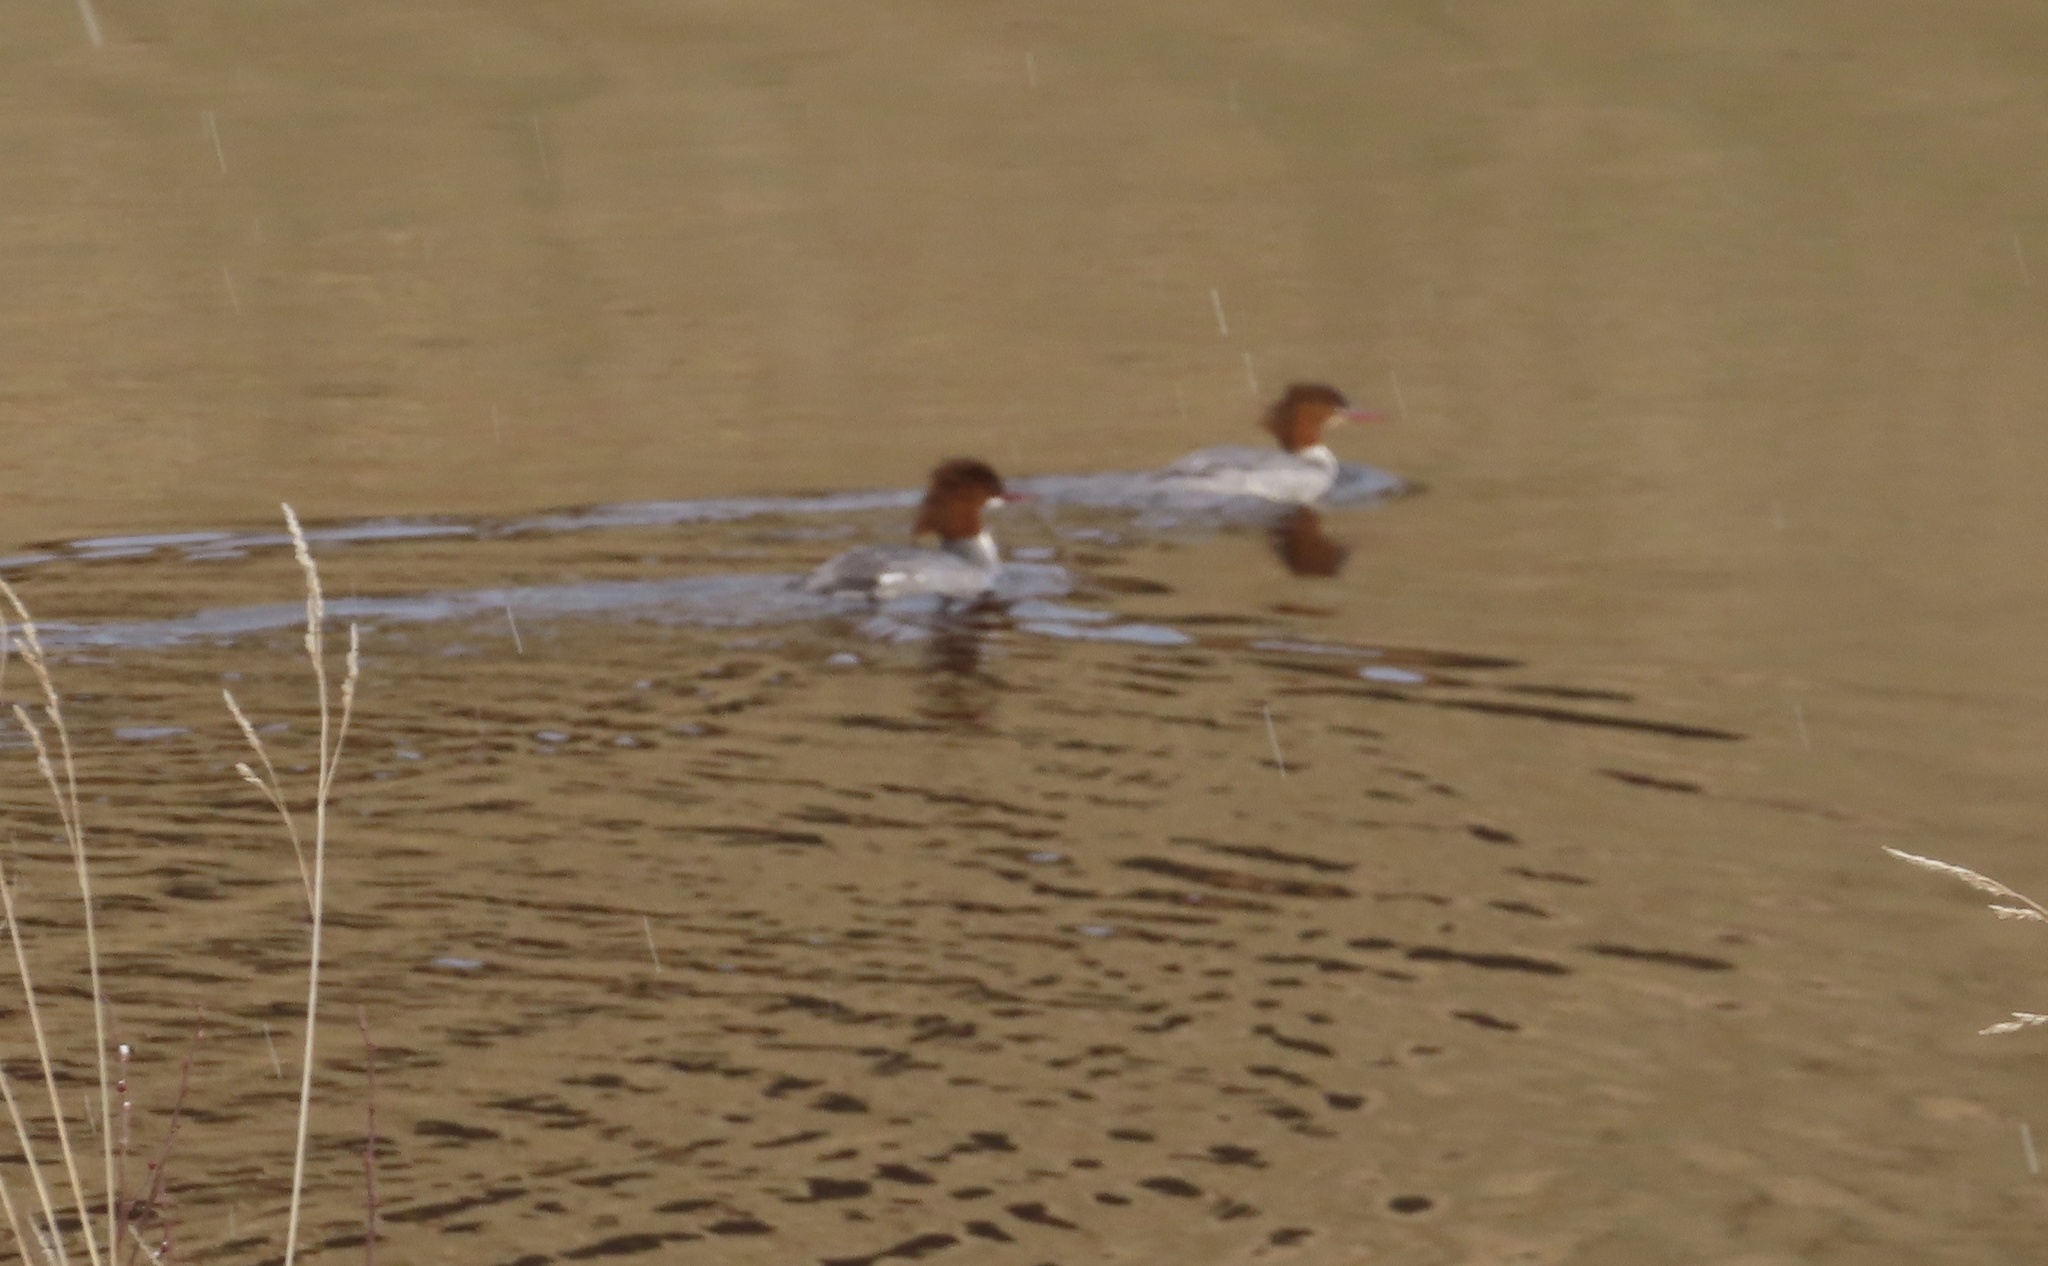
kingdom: Animalia
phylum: Chordata
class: Aves
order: Anseriformes
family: Anatidae
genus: Mergus
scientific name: Mergus merganser
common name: Common merganser
